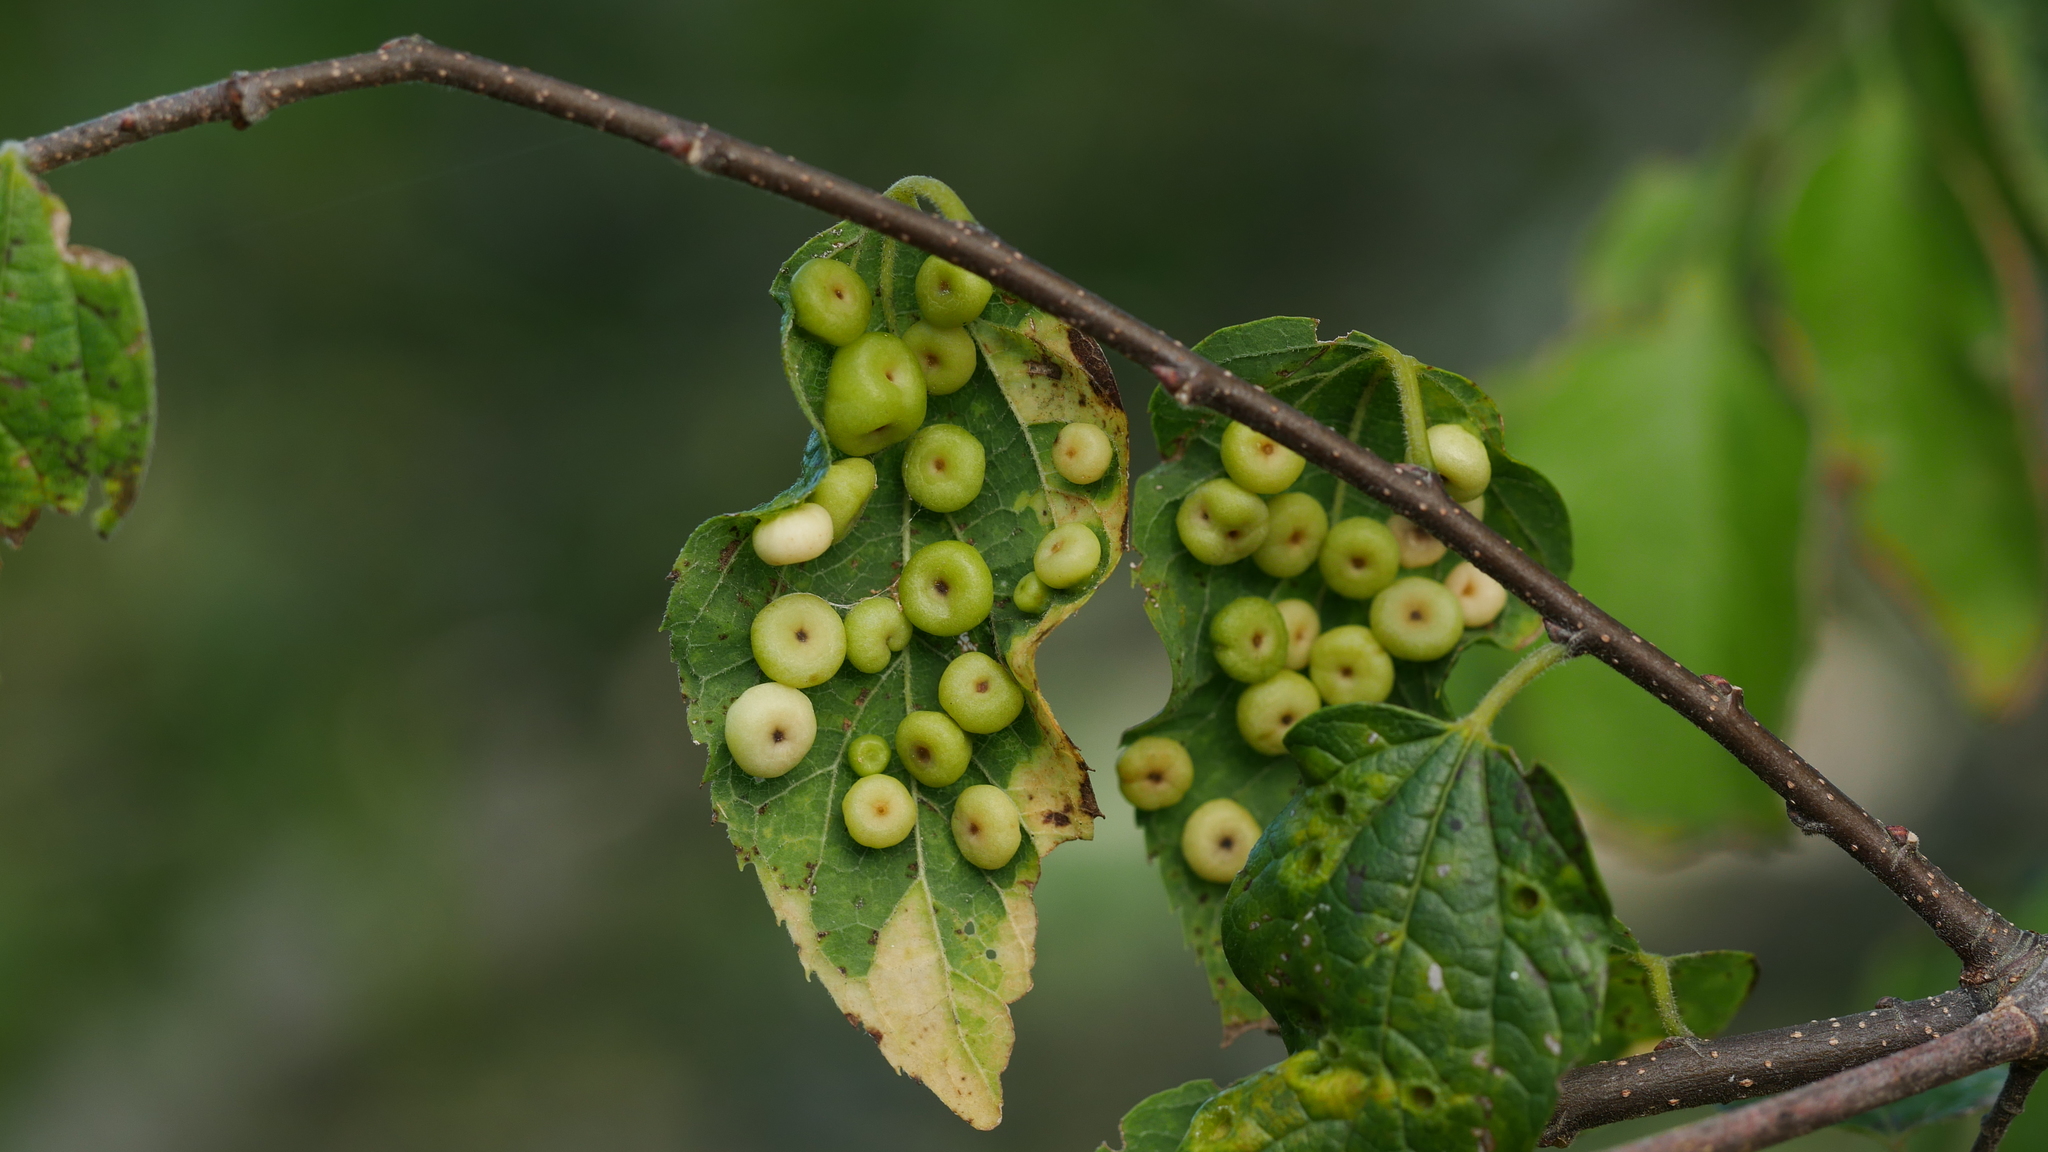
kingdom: Animalia
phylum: Arthropoda
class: Insecta
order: Hemiptera
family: Aphalaridae
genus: Pachypsylla
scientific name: Pachypsylla celtidismamma
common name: Hackberry nipplegall psyllid
